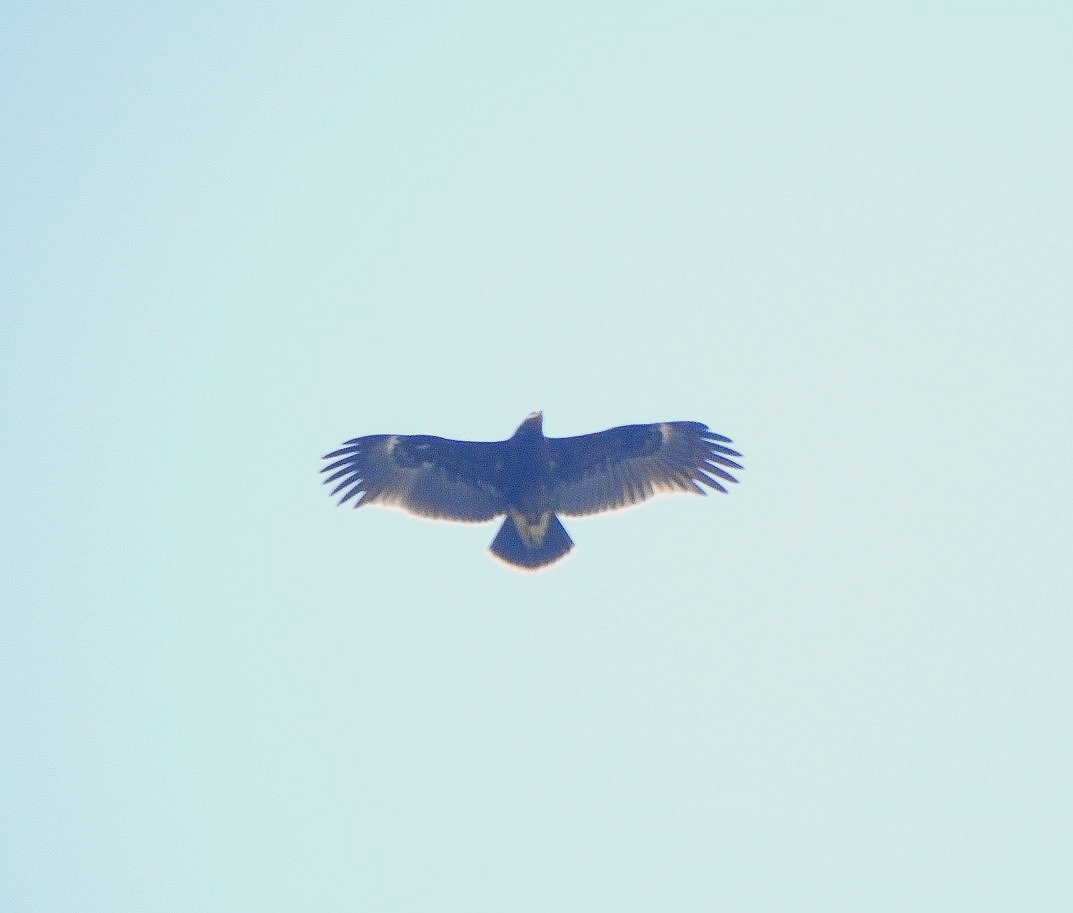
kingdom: Animalia
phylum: Chordata
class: Aves
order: Accipitriformes
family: Accipitridae
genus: Aquila
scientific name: Aquila clanga
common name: Greater spotted eagle
